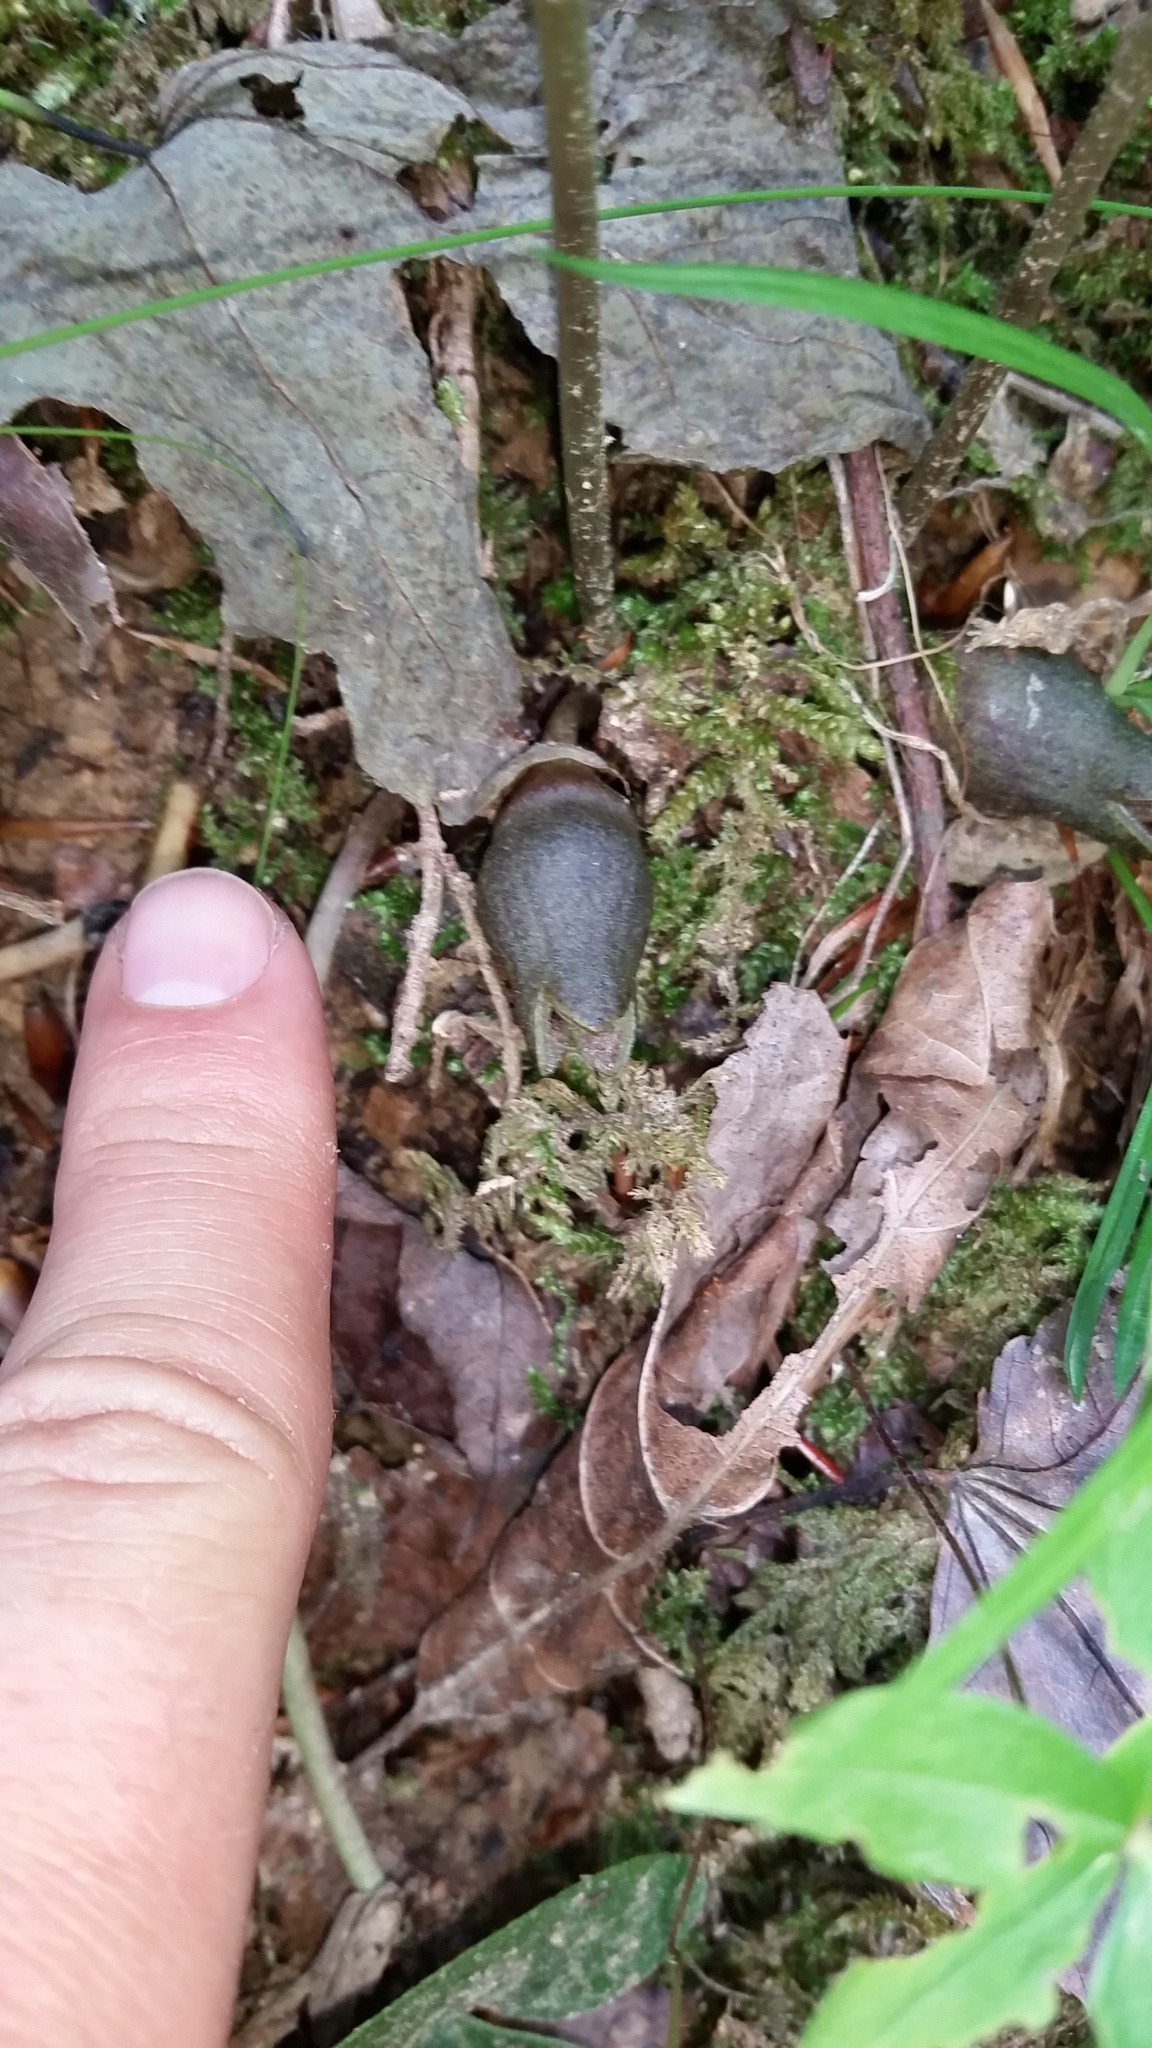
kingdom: Plantae
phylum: Tracheophyta
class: Magnoliopsida
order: Piperales
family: Aristolochiaceae
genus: Hexastylis
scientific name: Hexastylis arifolia
